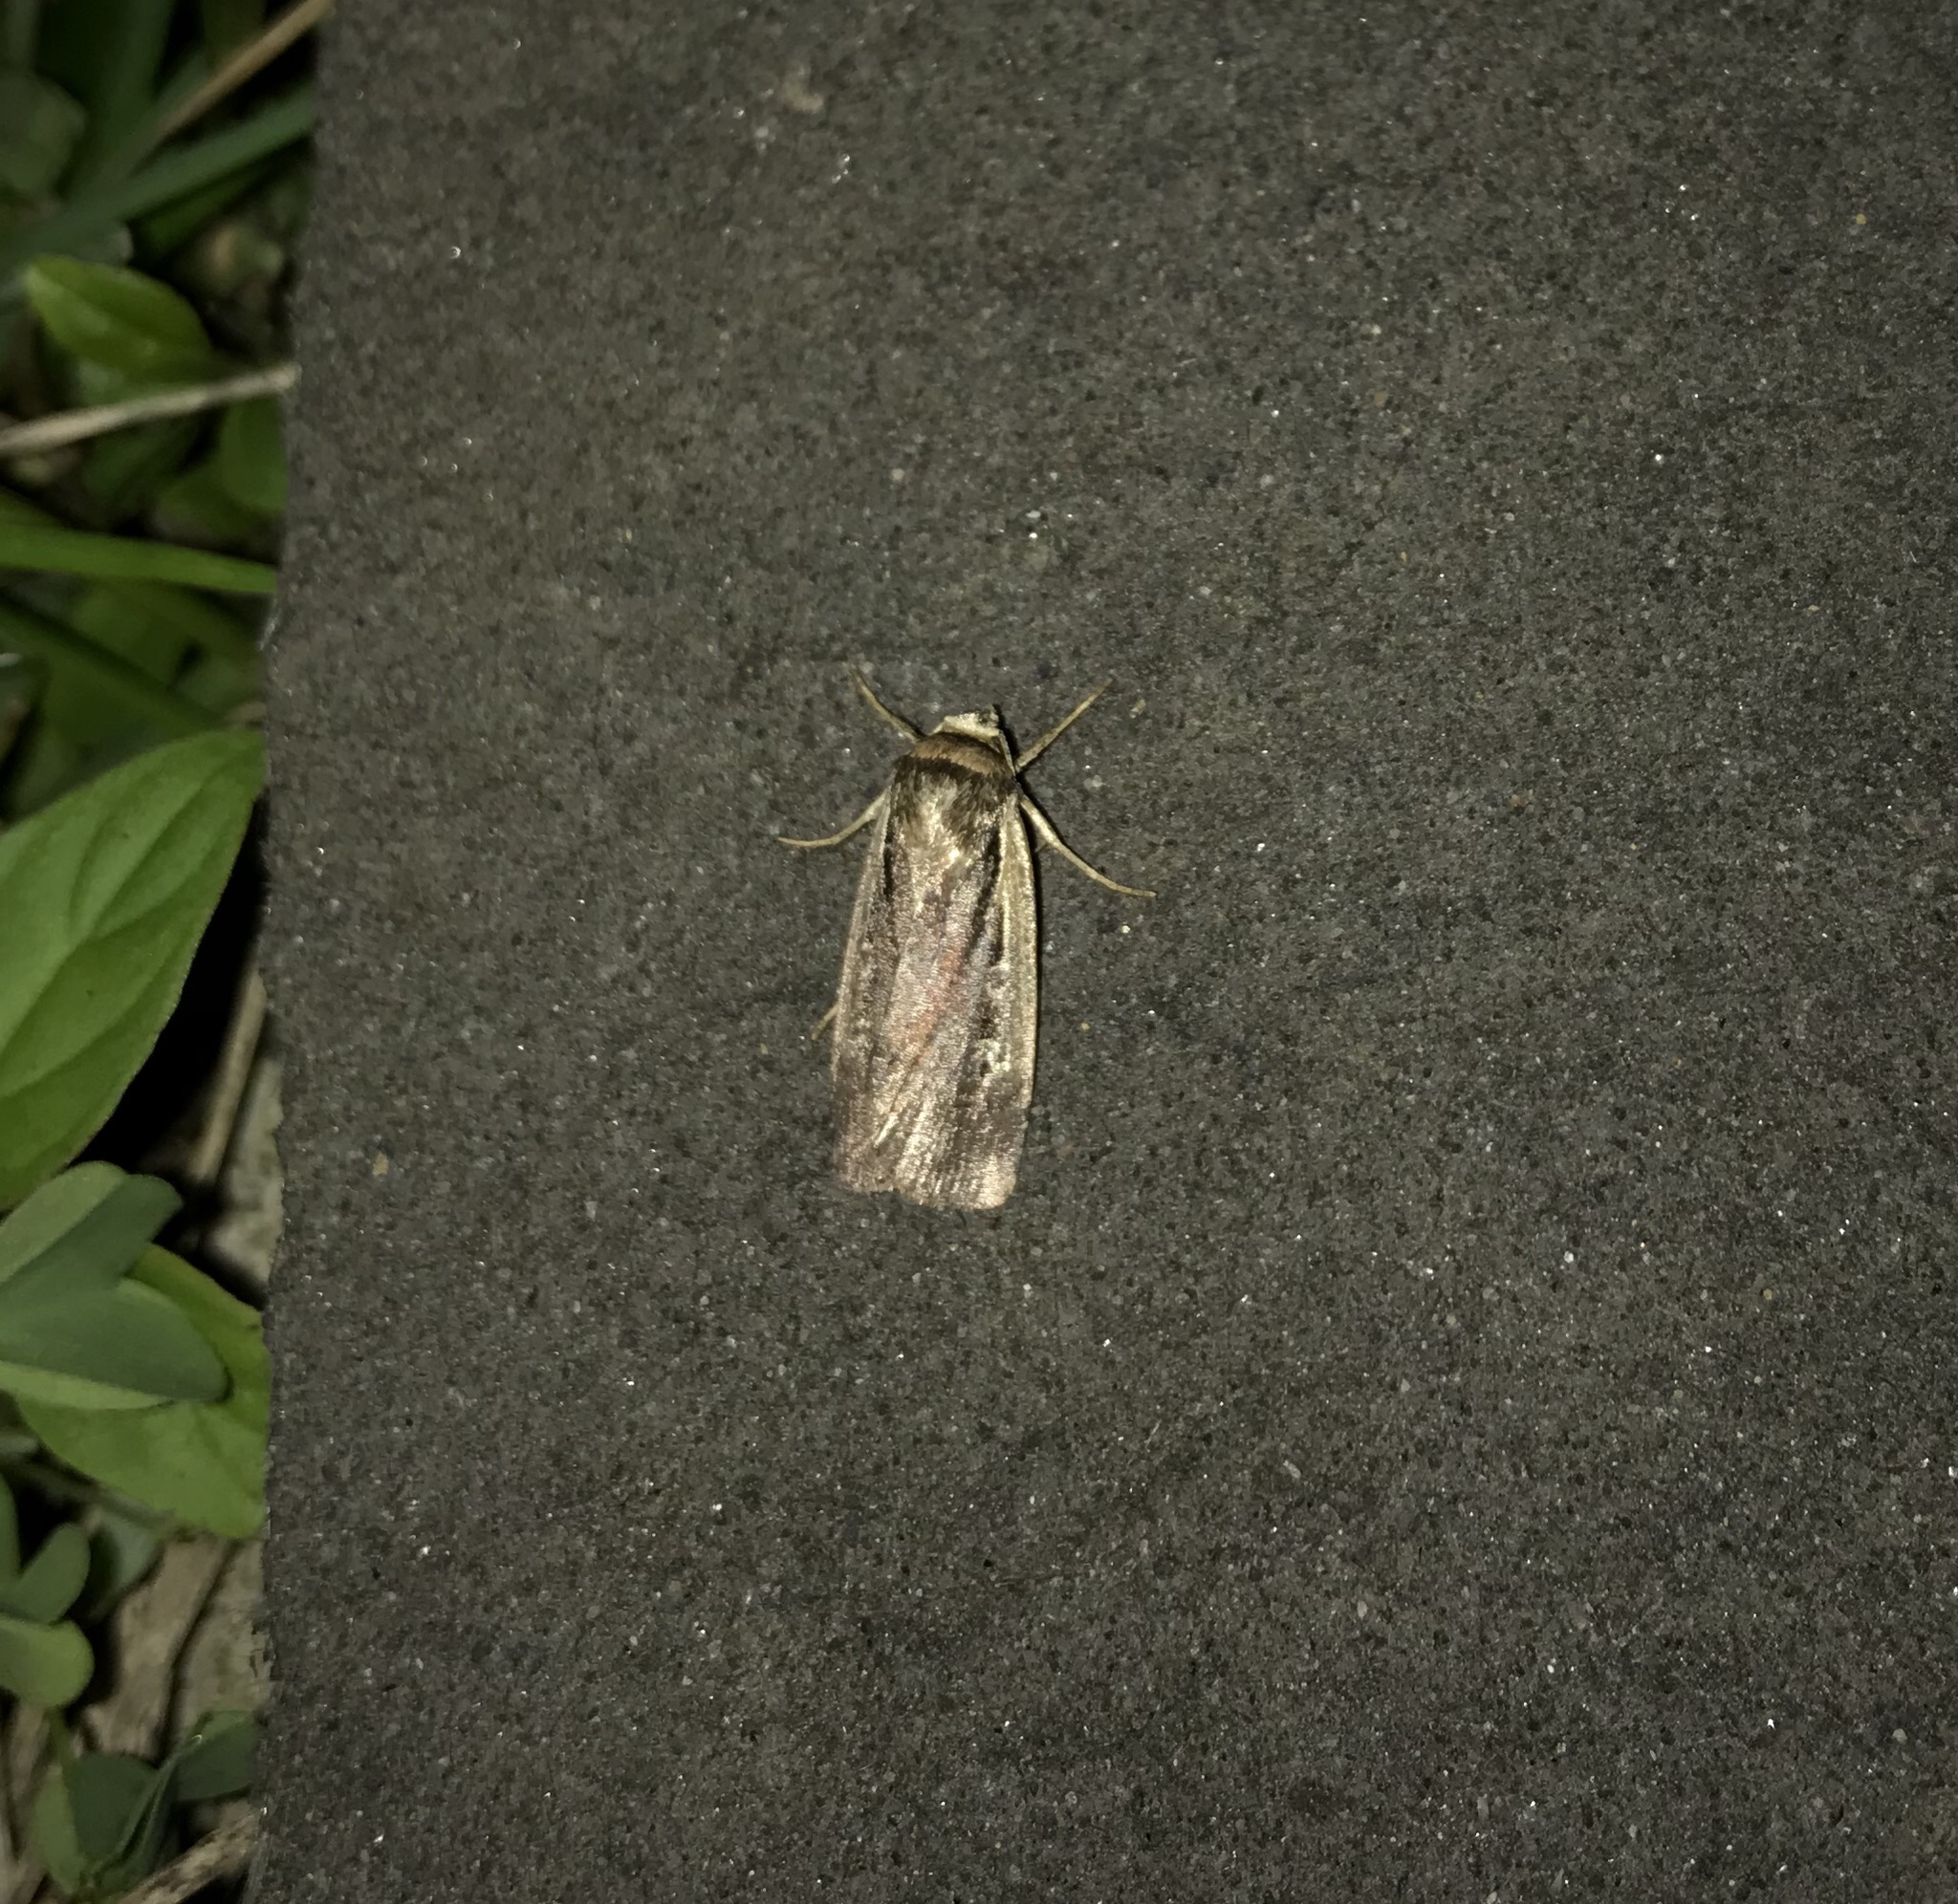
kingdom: Animalia
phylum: Arthropoda
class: Insecta
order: Lepidoptera
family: Noctuidae
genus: Ochropleura
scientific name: Ochropleura implecta
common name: Flame-shouldered dart
